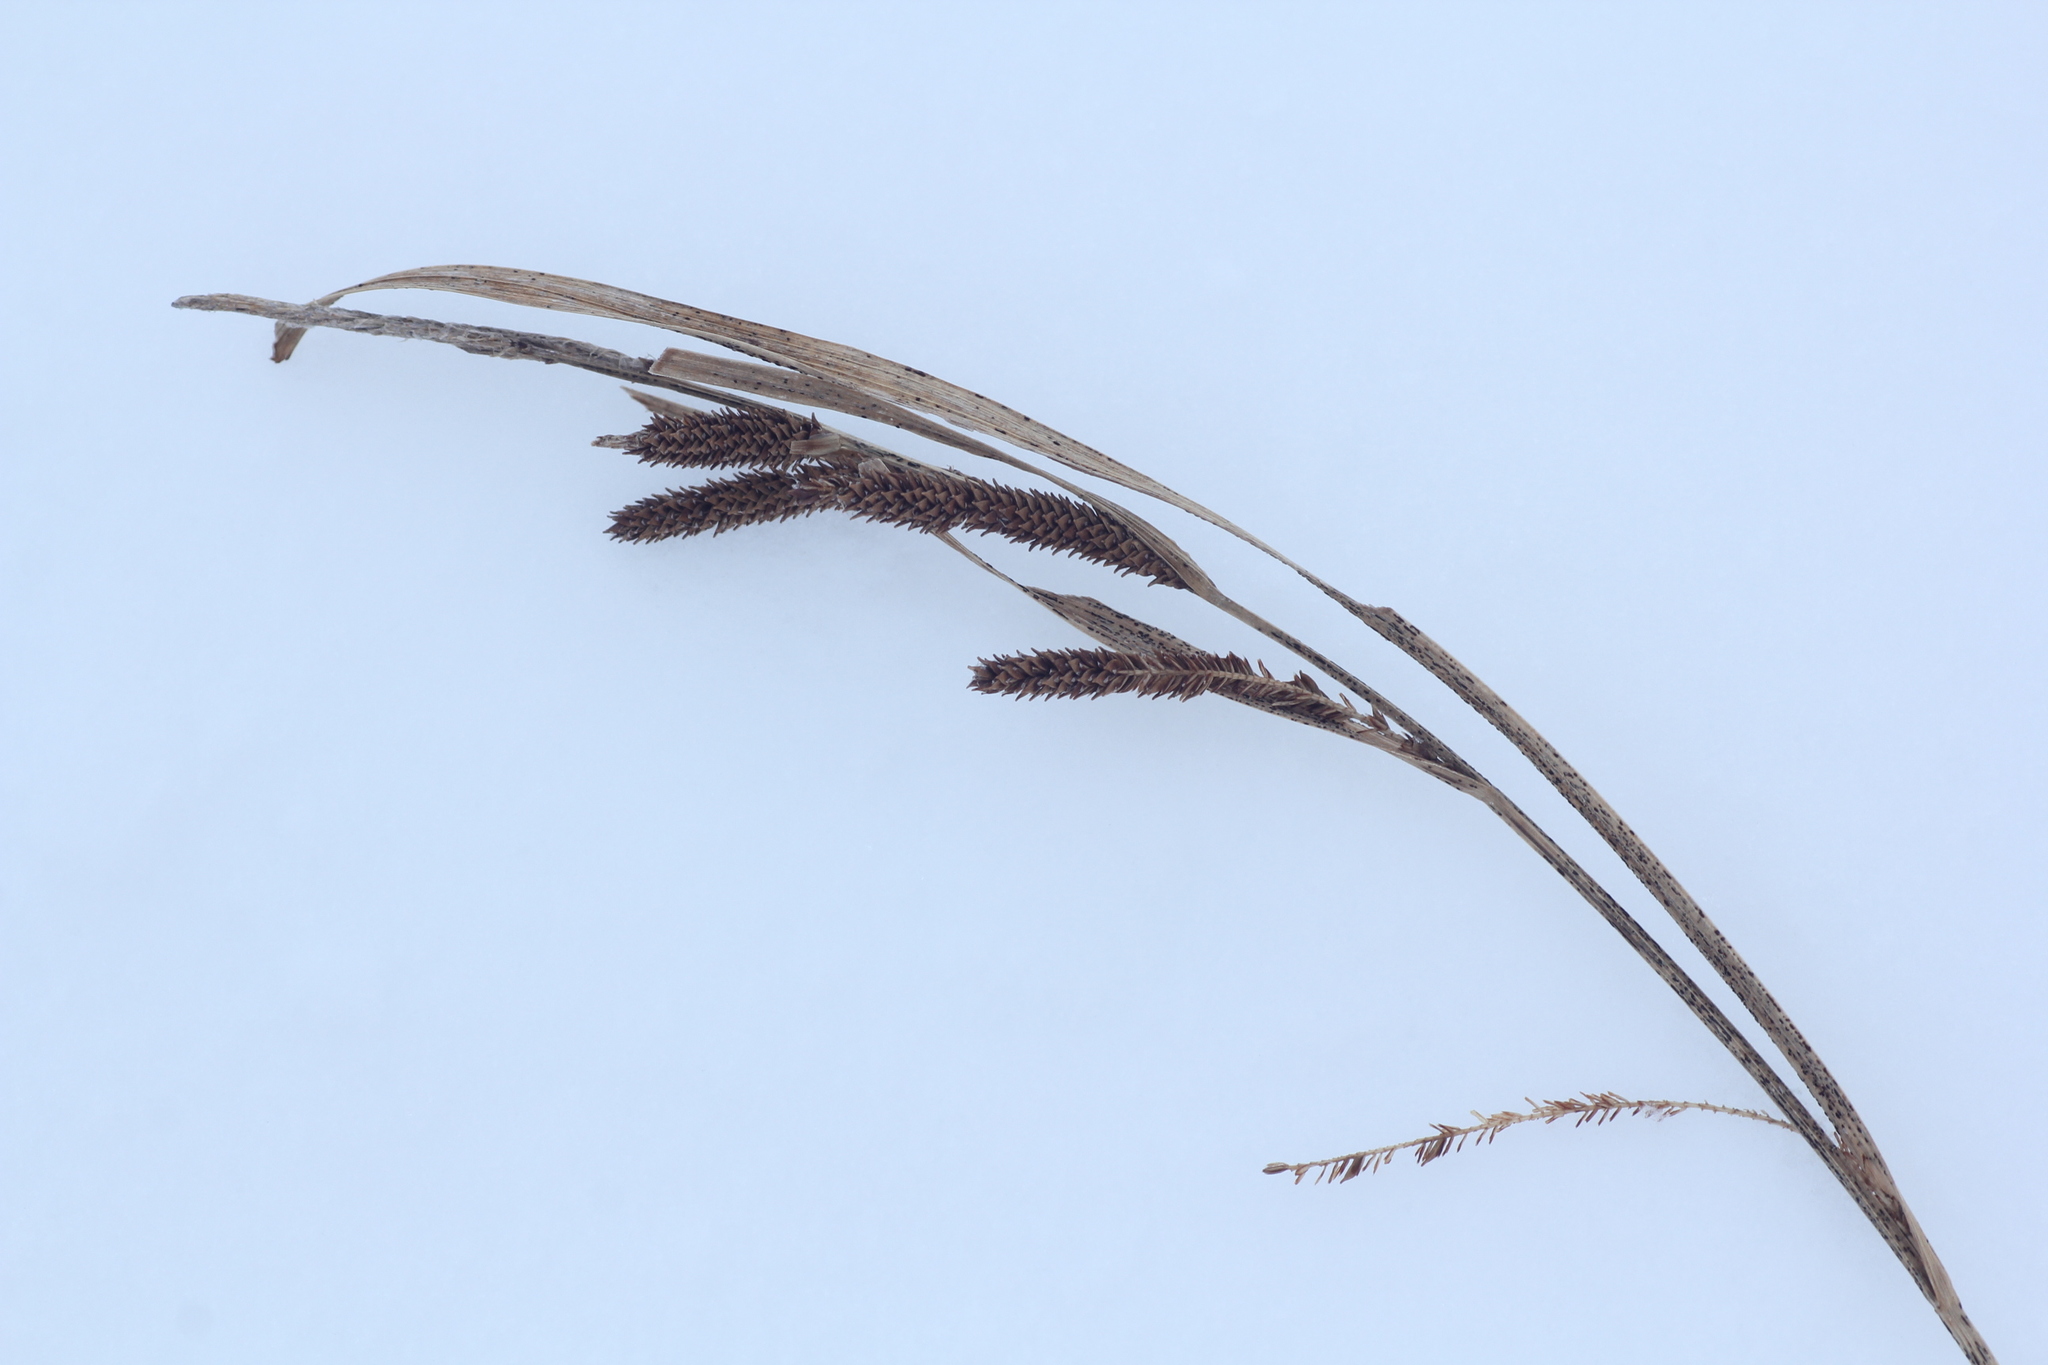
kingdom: Plantae
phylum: Tracheophyta
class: Liliopsida
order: Poales
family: Cyperaceae
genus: Carex
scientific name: Carex aquatilis
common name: Water sedge
